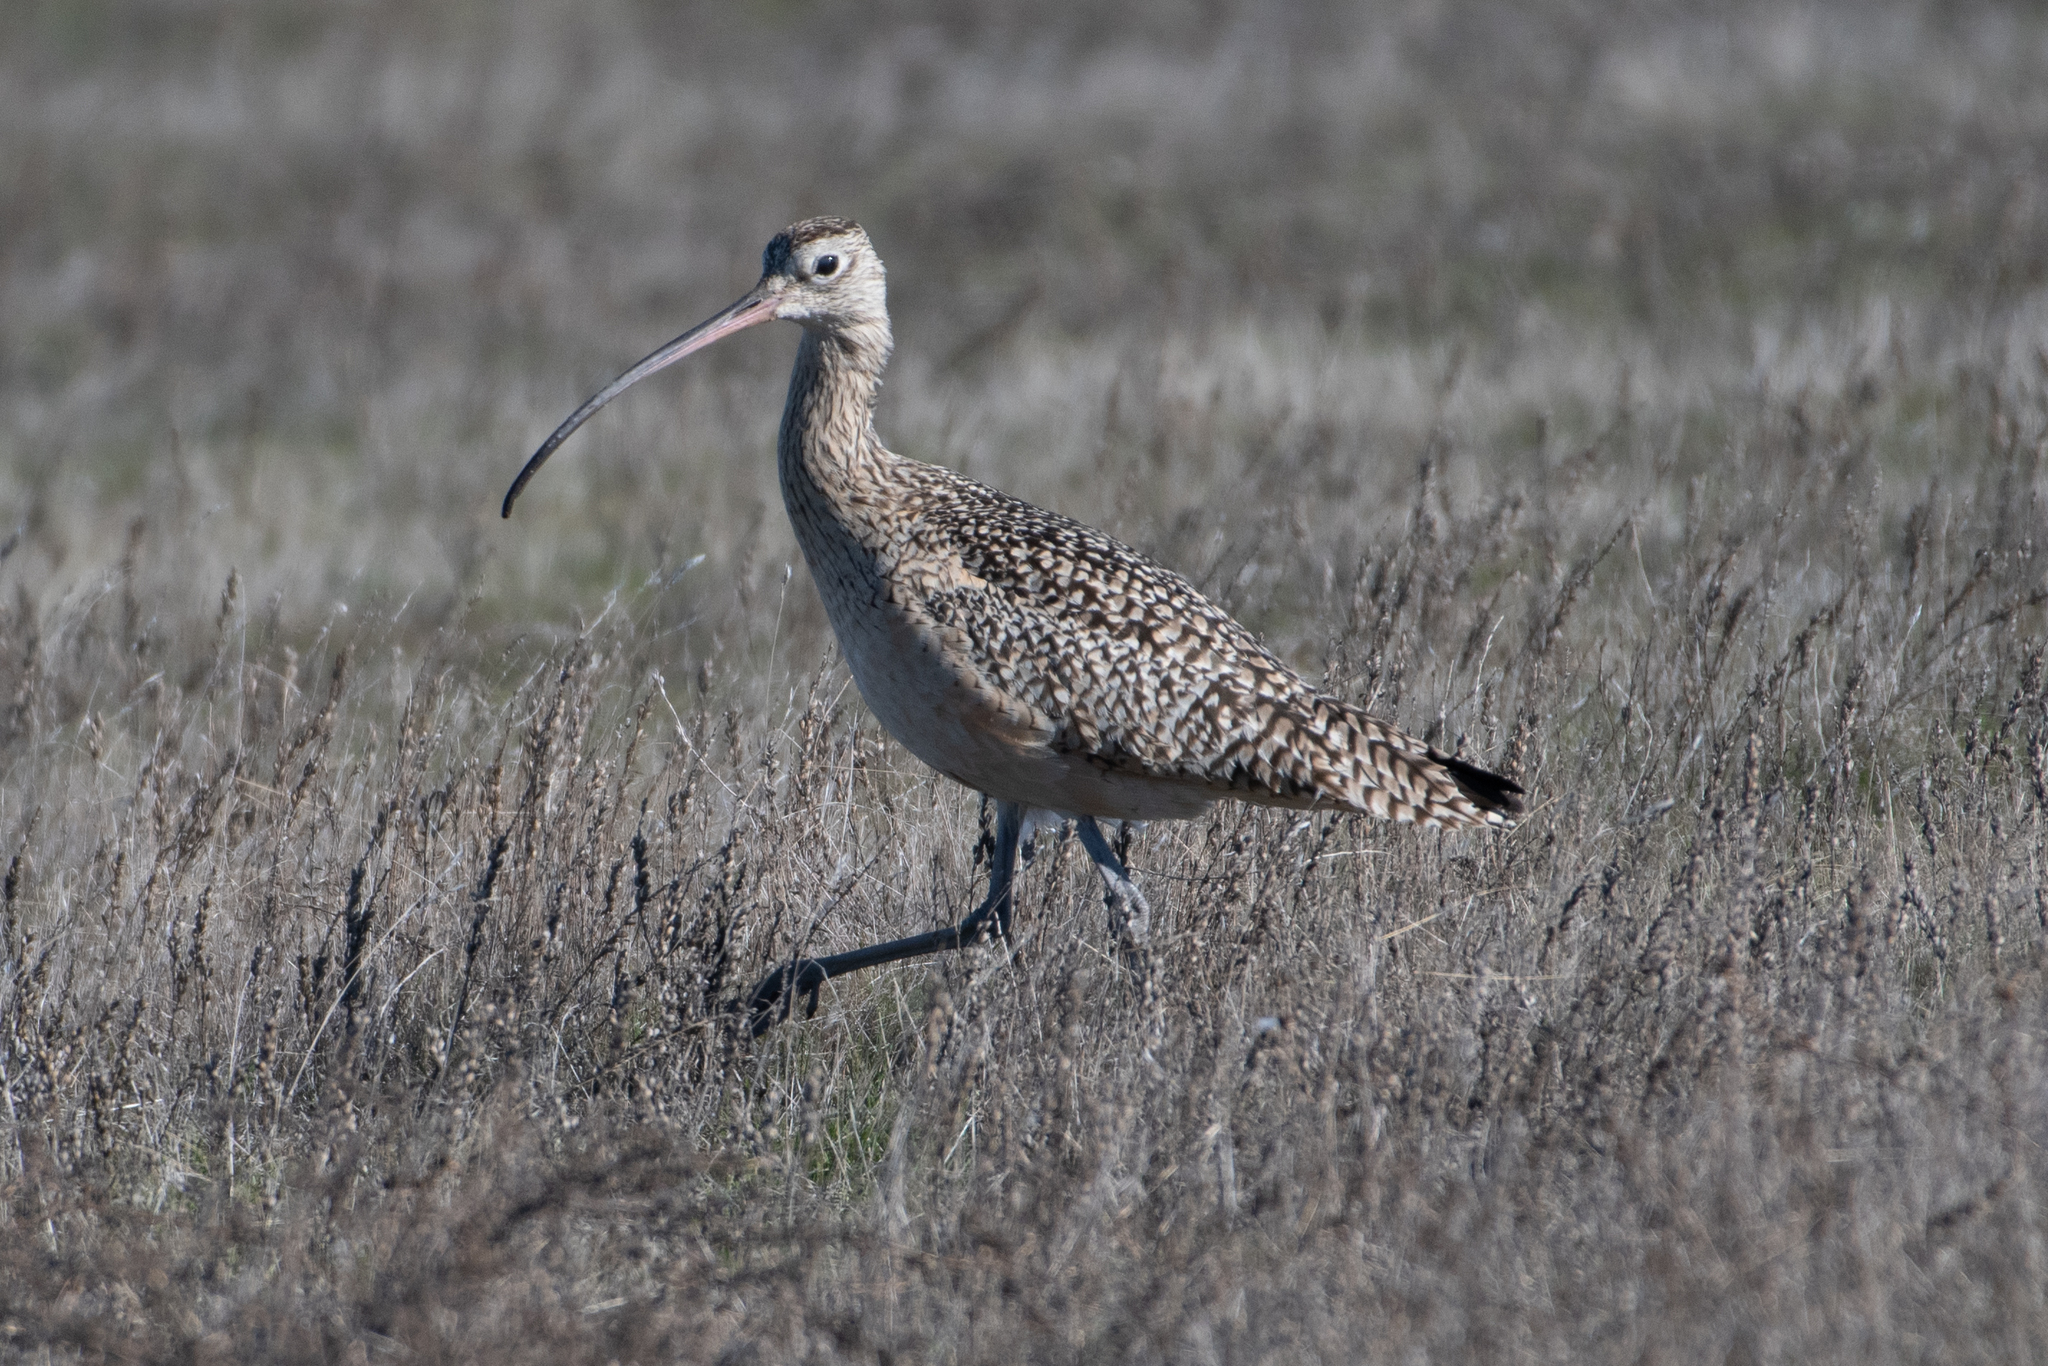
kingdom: Animalia
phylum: Chordata
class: Aves
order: Charadriiformes
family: Scolopacidae
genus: Numenius
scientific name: Numenius americanus
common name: Long-billed curlew
